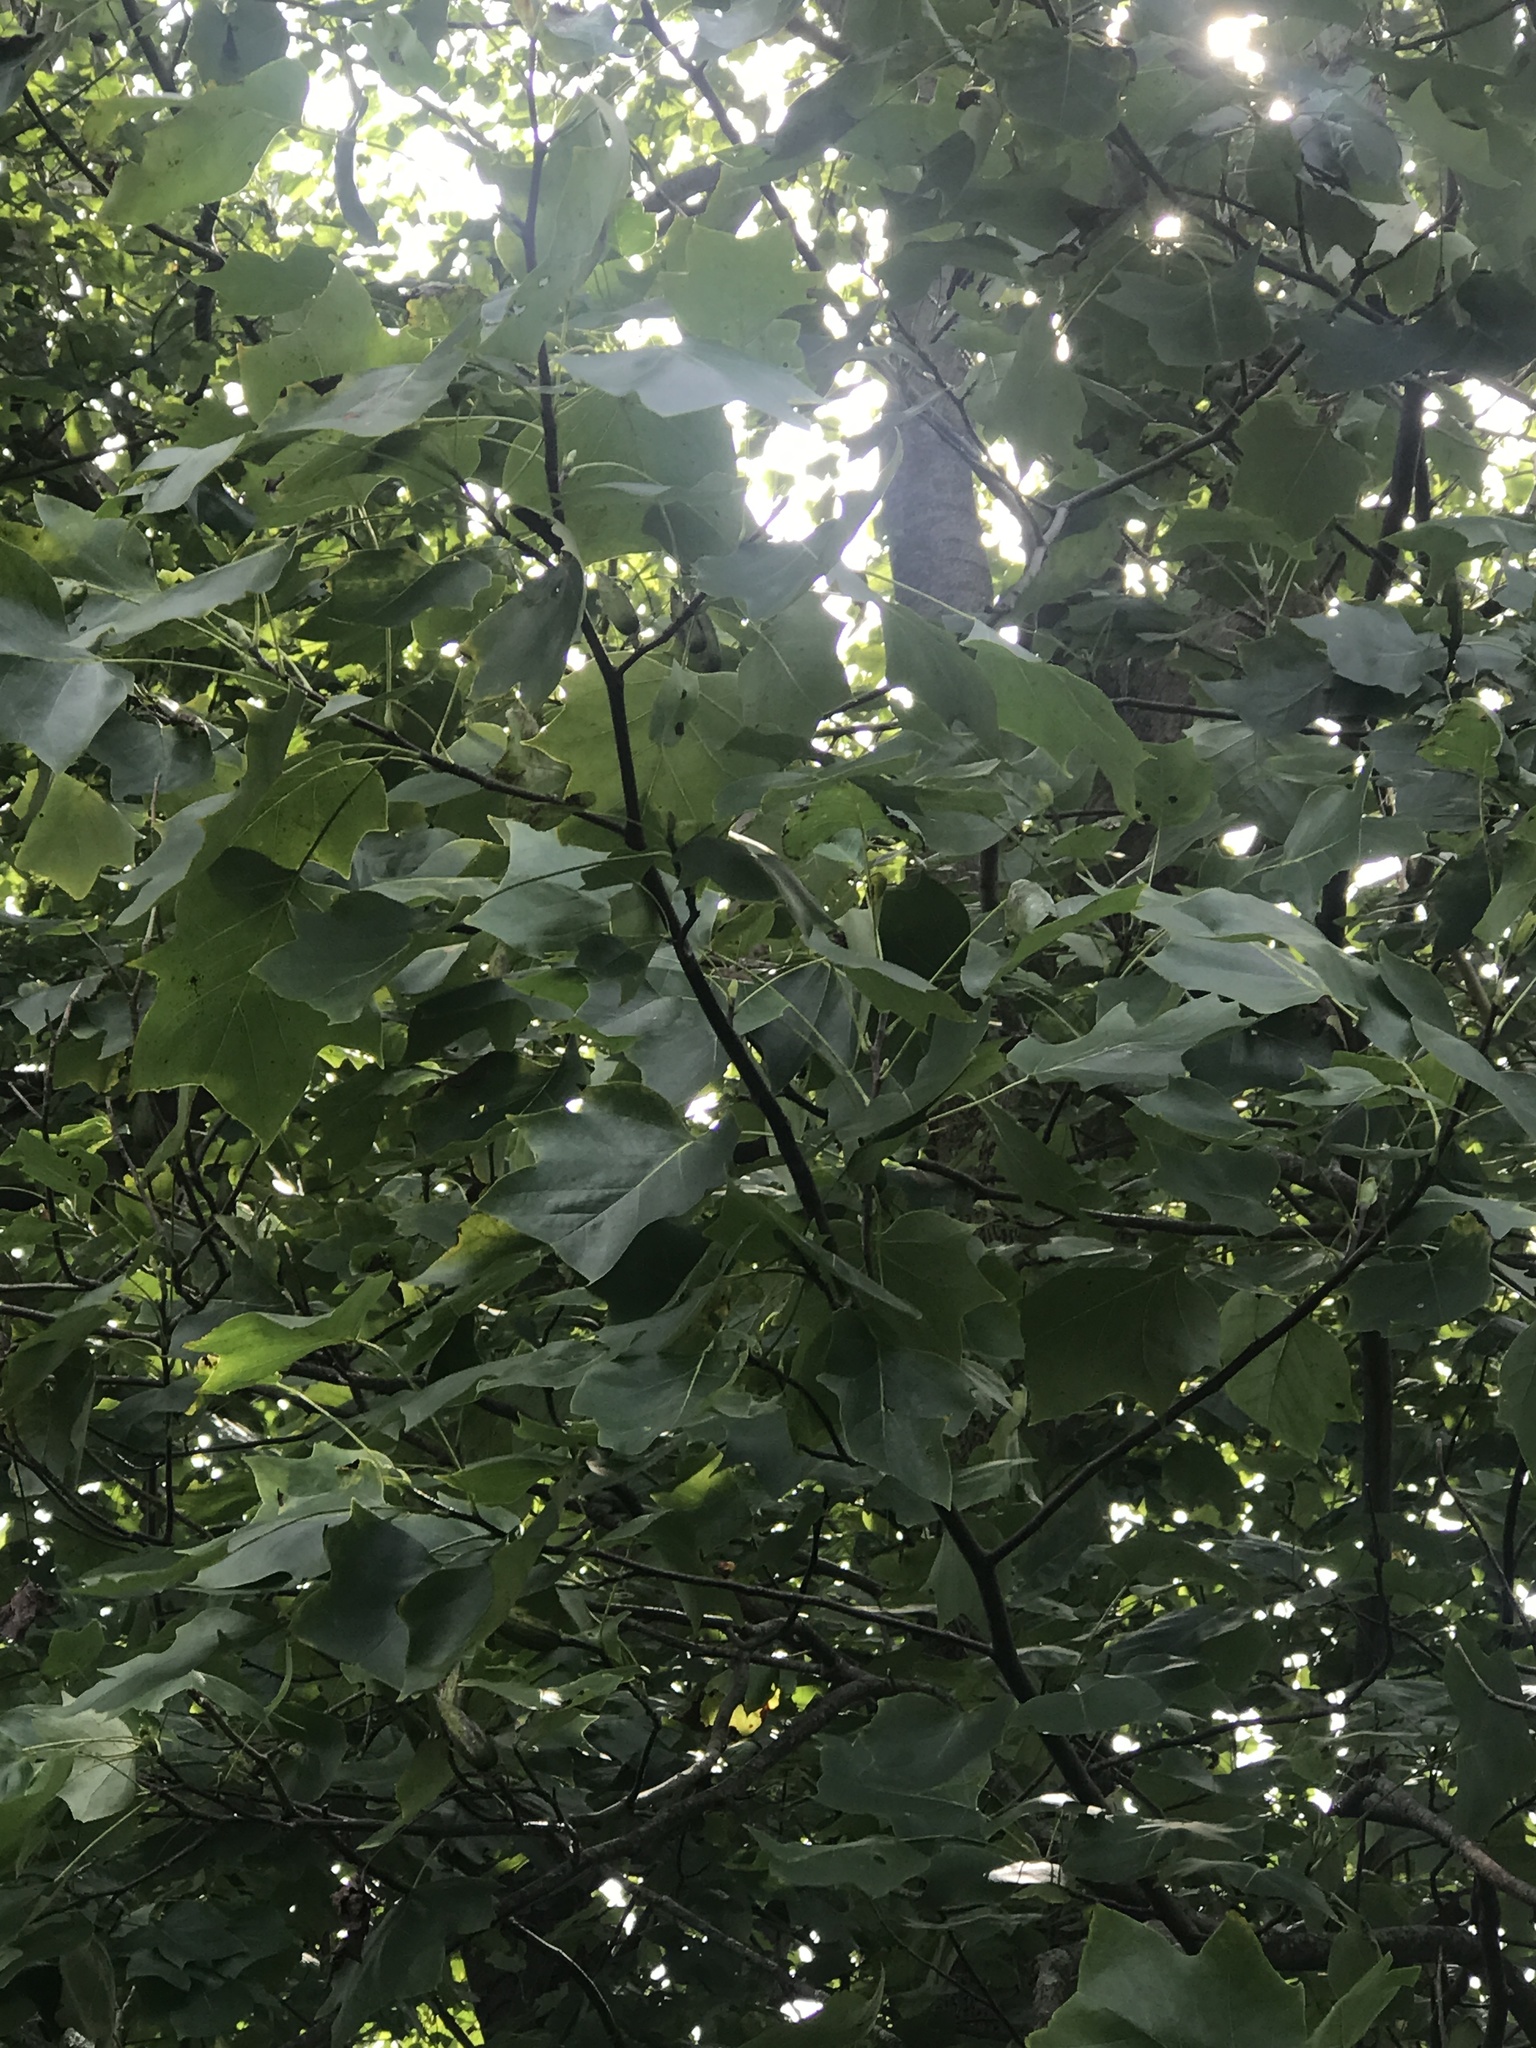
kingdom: Plantae
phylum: Tracheophyta
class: Magnoliopsida
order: Magnoliales
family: Magnoliaceae
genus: Liriodendron
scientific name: Liriodendron tulipifera
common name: Tulip tree
